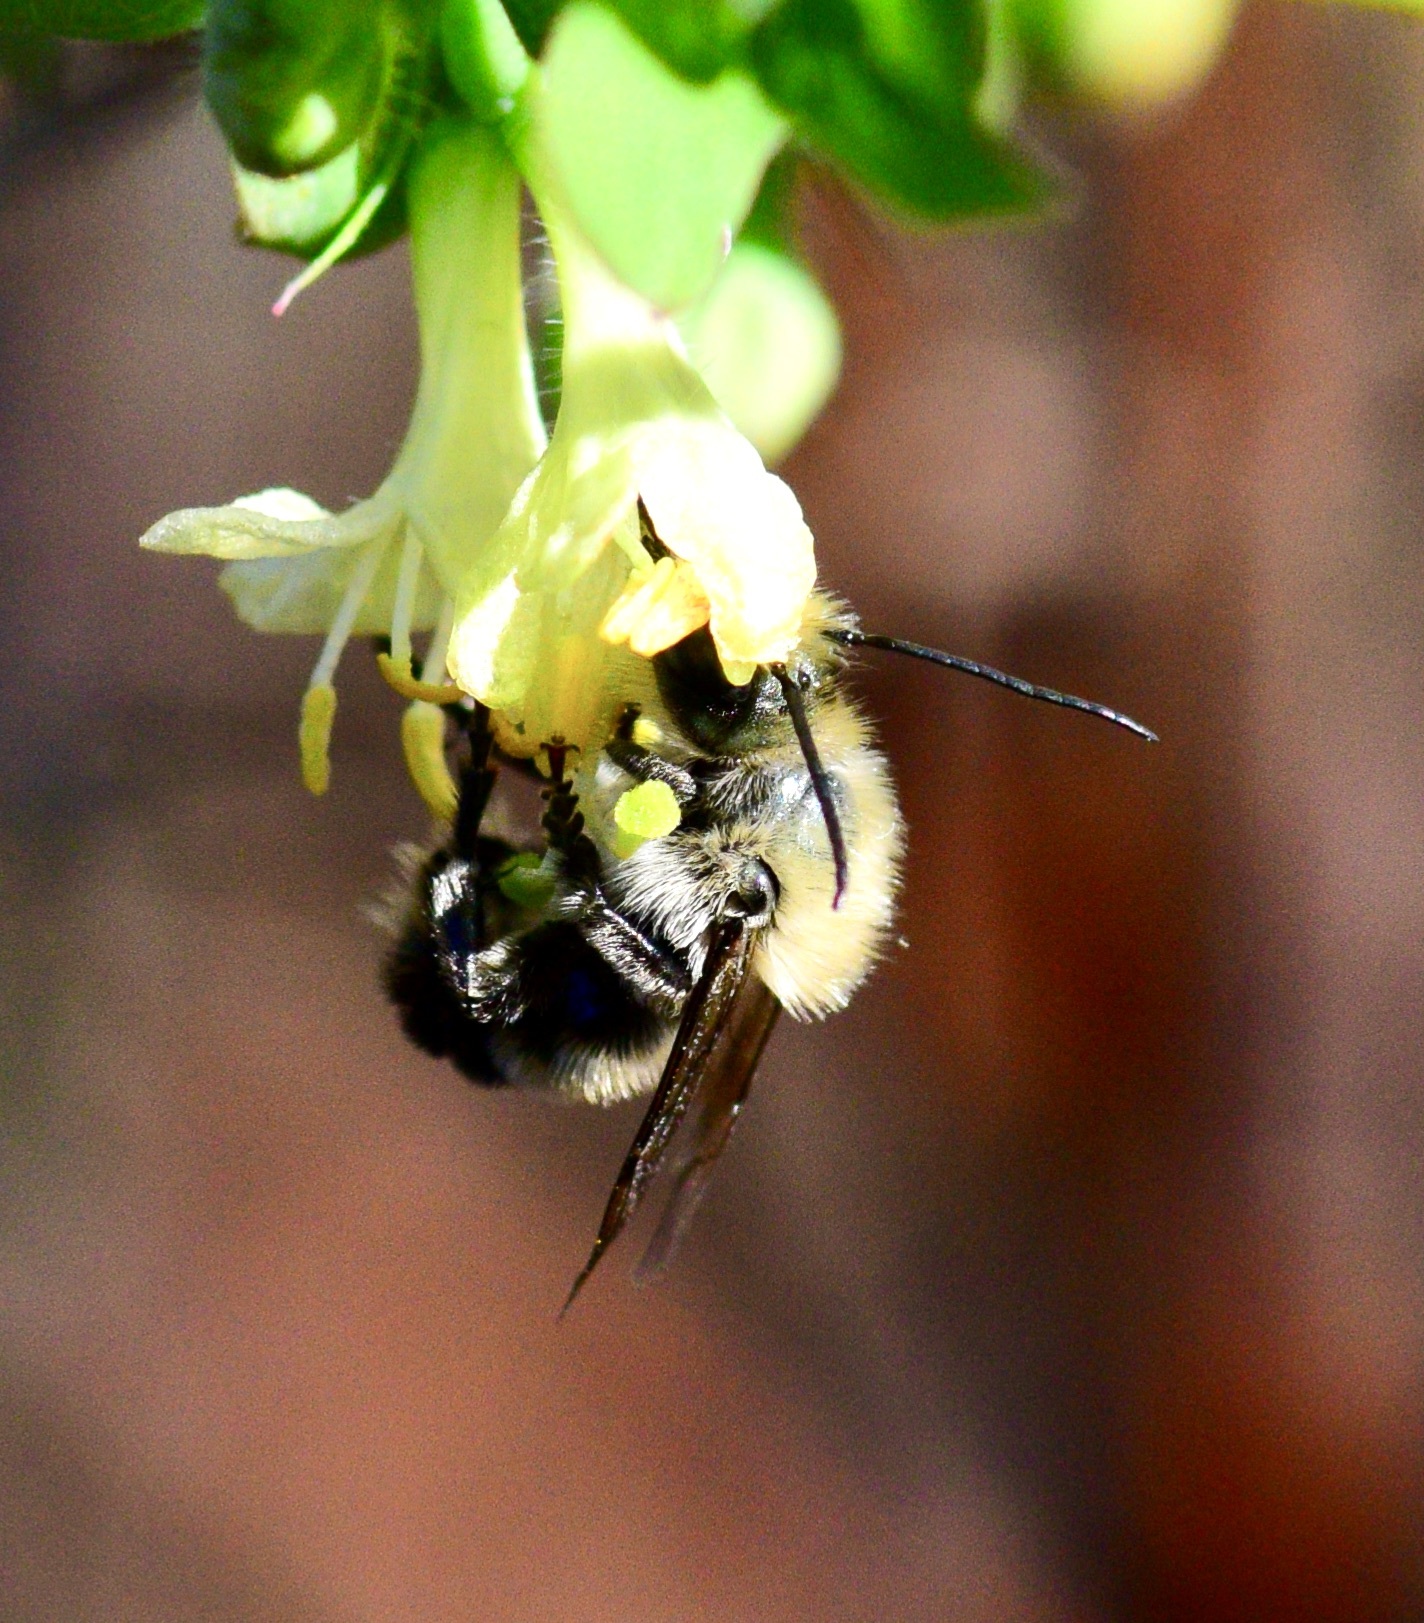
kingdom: Animalia
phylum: Arthropoda
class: Insecta
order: Hymenoptera
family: Megachilidae
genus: Osmia
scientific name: Osmia bucephala
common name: Bufflehead mason bee
